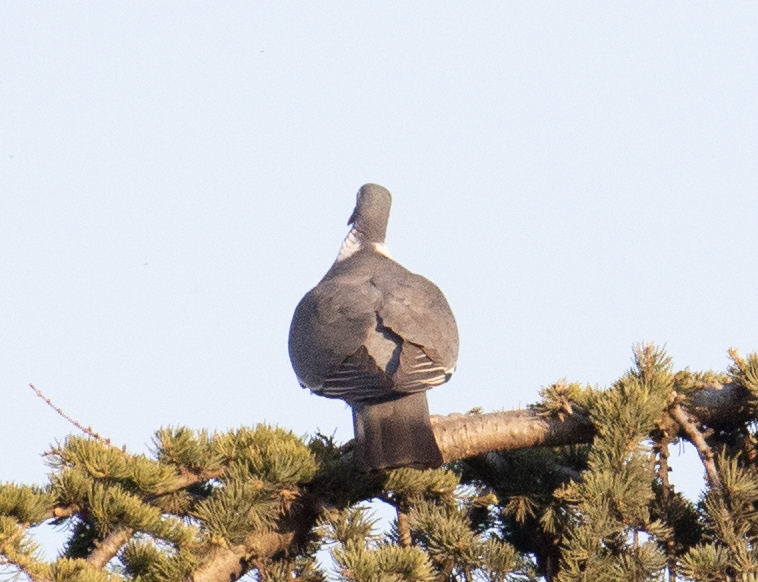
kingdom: Animalia
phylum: Chordata
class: Aves
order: Columbiformes
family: Columbidae
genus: Columba
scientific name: Columba palumbus
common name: Common wood pigeon
